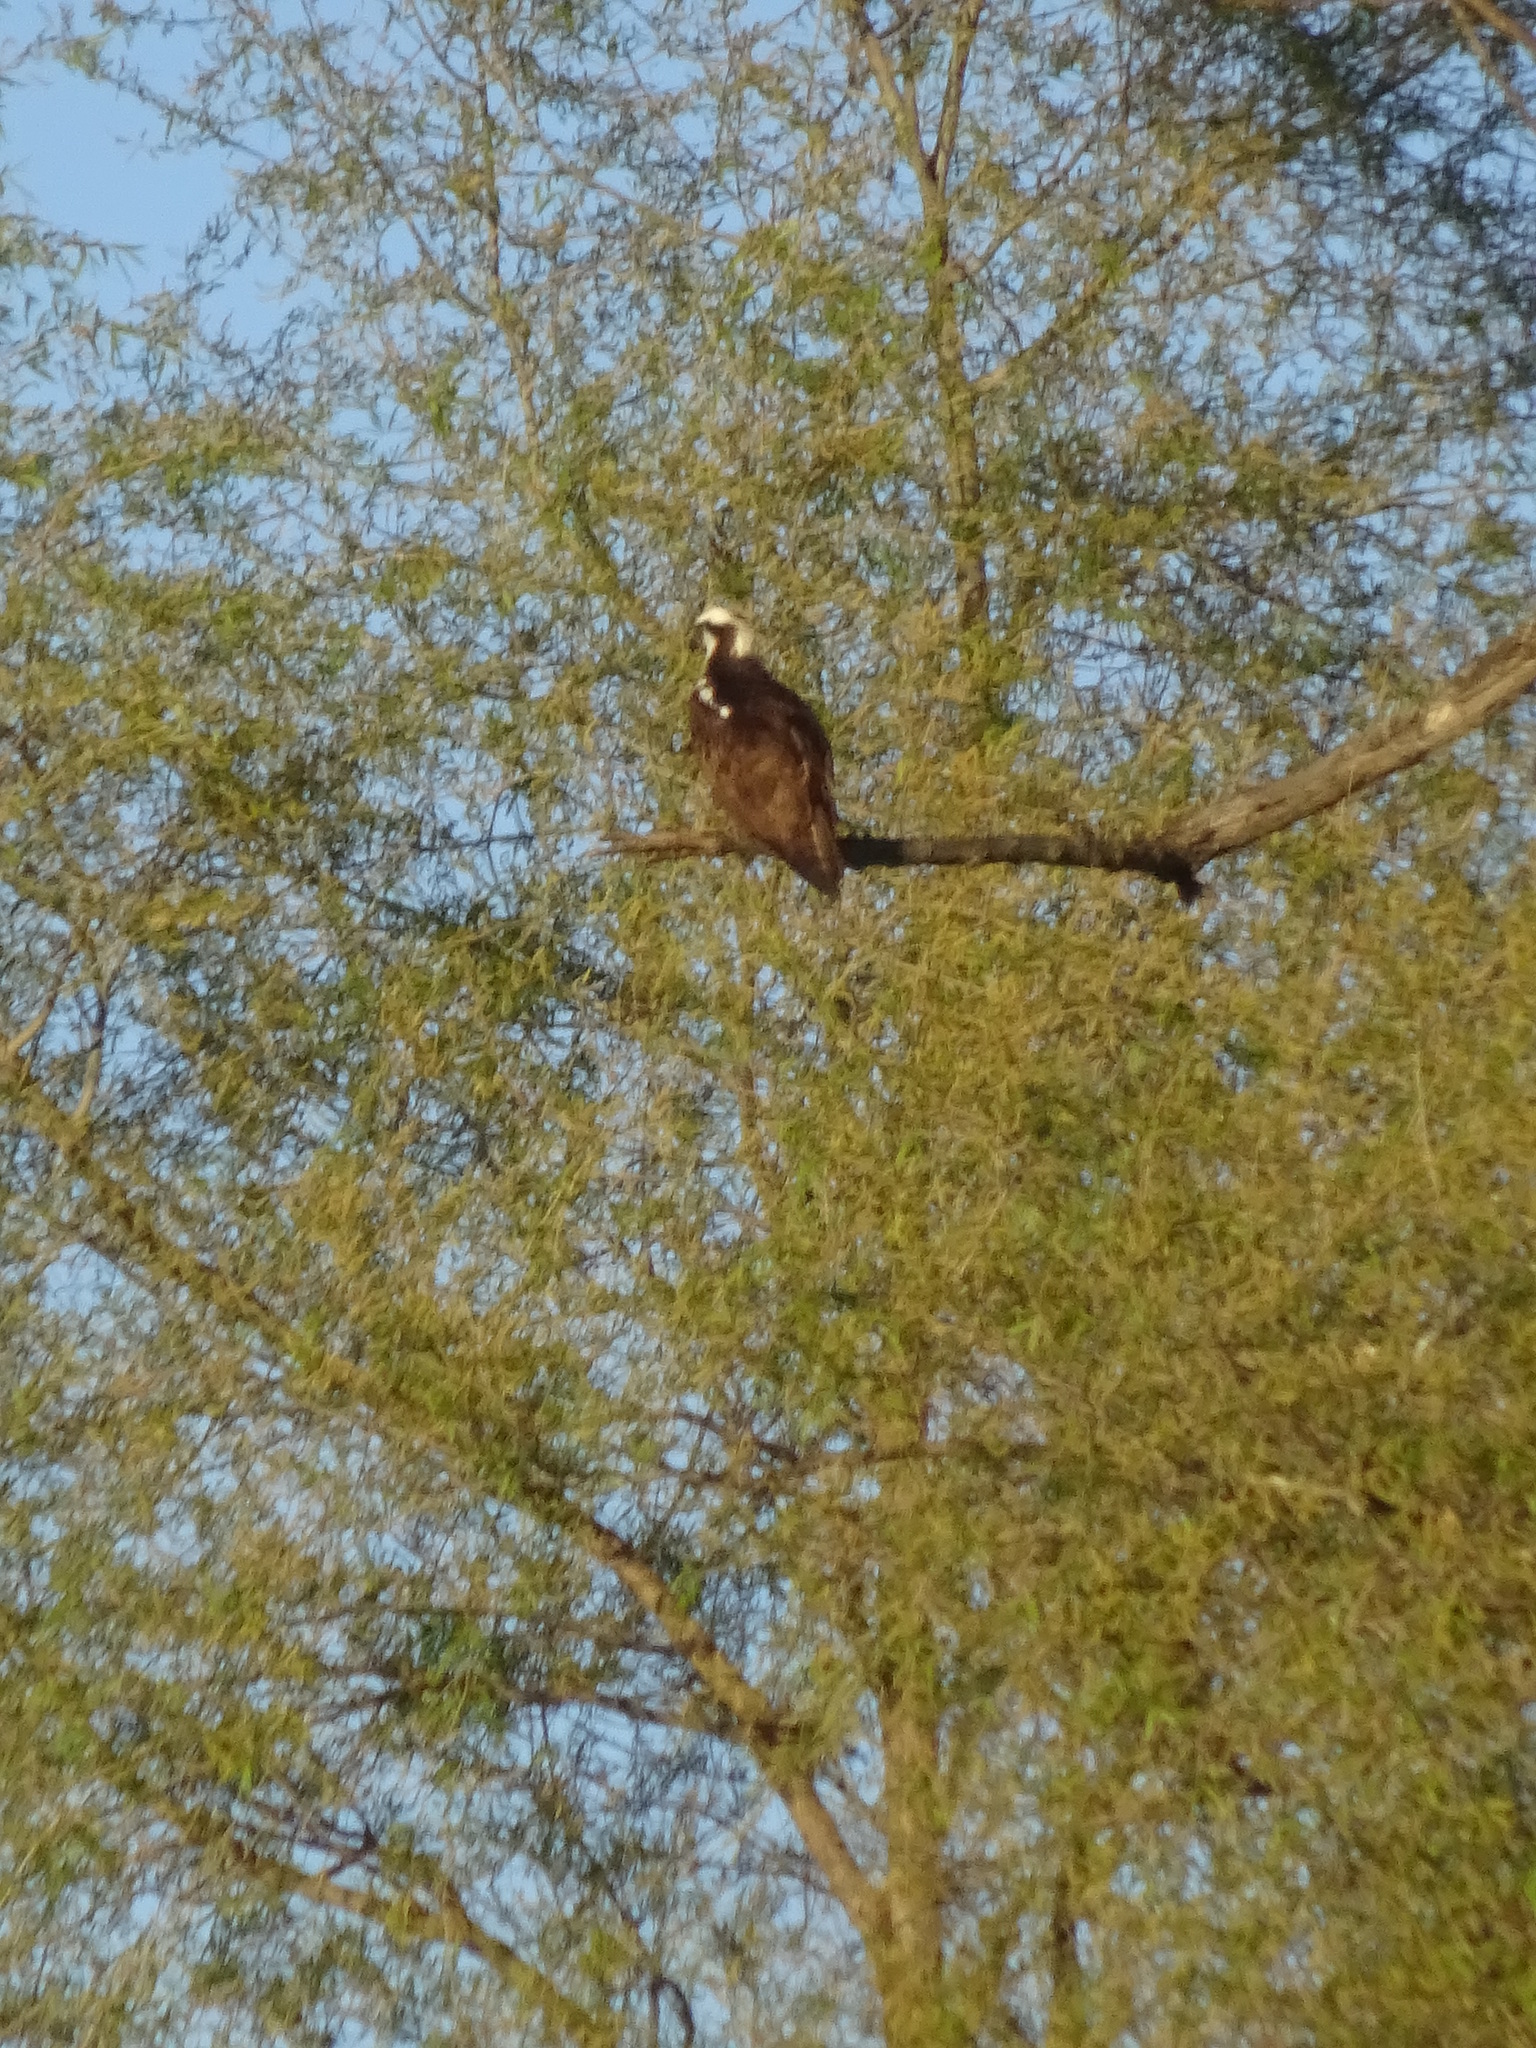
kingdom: Animalia
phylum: Chordata
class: Aves
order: Accipitriformes
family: Pandionidae
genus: Pandion
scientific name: Pandion haliaetus
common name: Osprey
